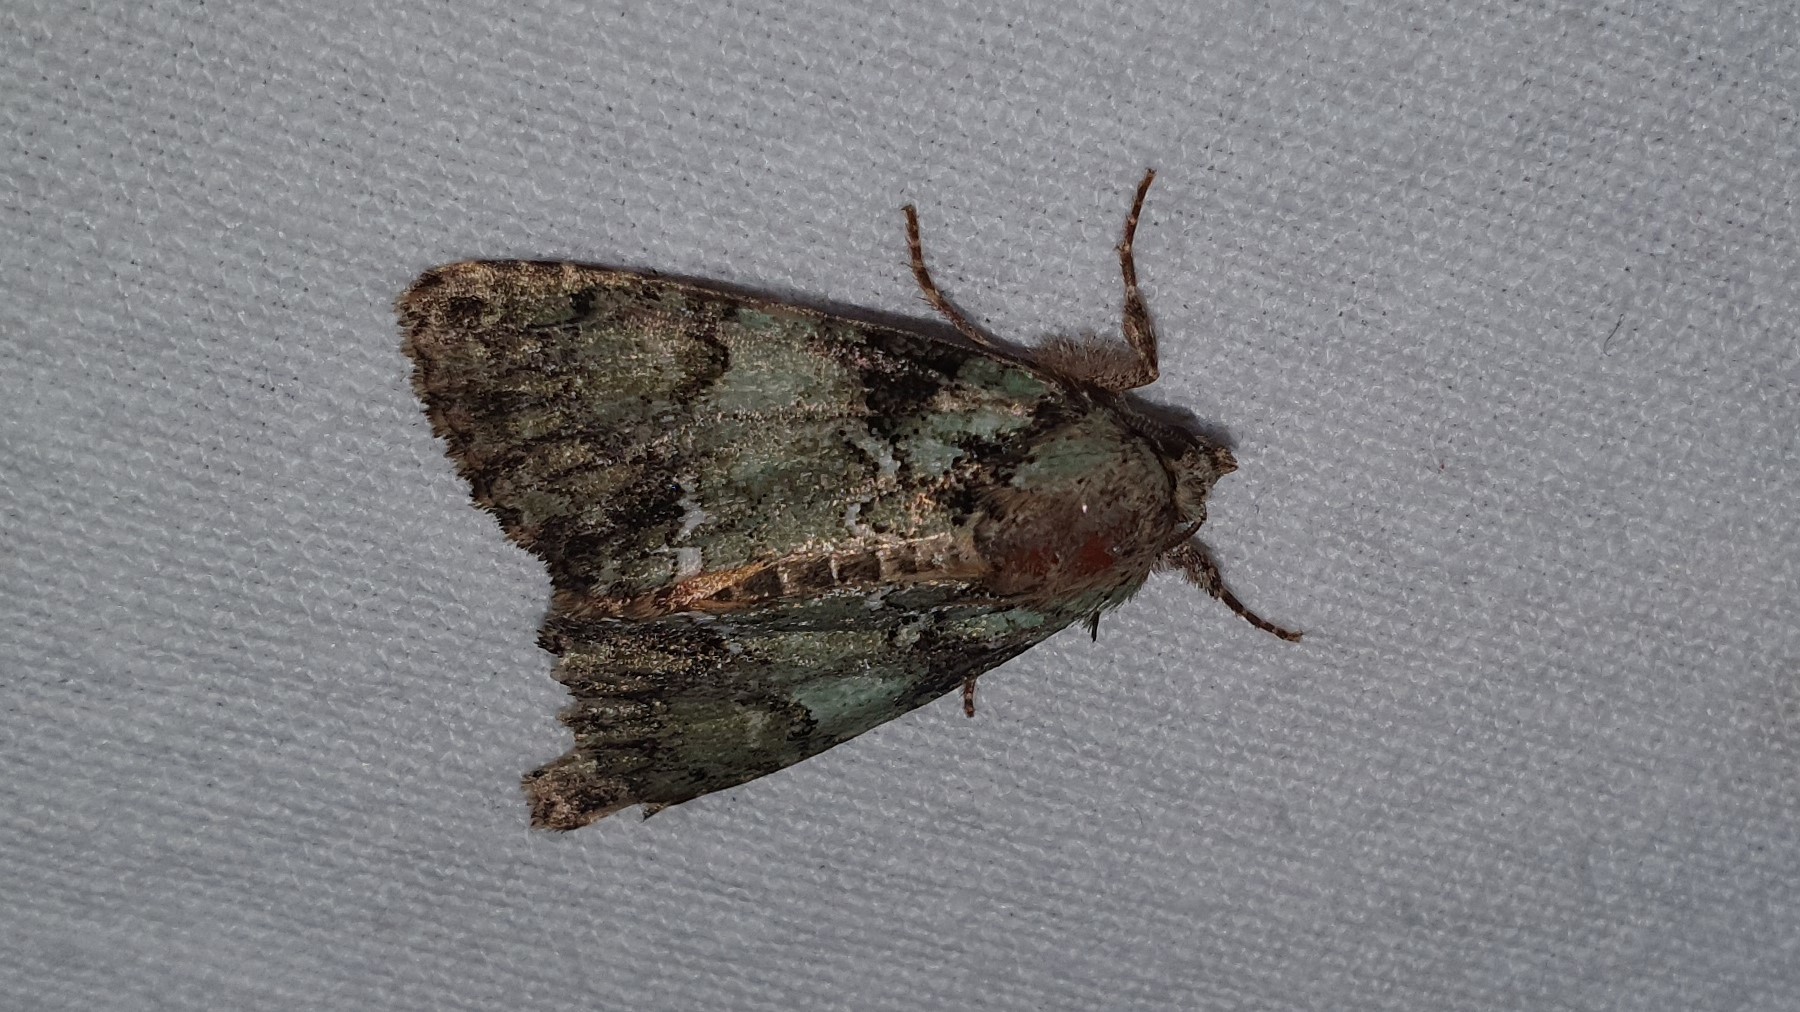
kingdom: Animalia
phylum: Arthropoda
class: Insecta
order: Lepidoptera
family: Noctuidae
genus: Polyphaenis
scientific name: Polyphaenis sericata
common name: Guernsey underwing
